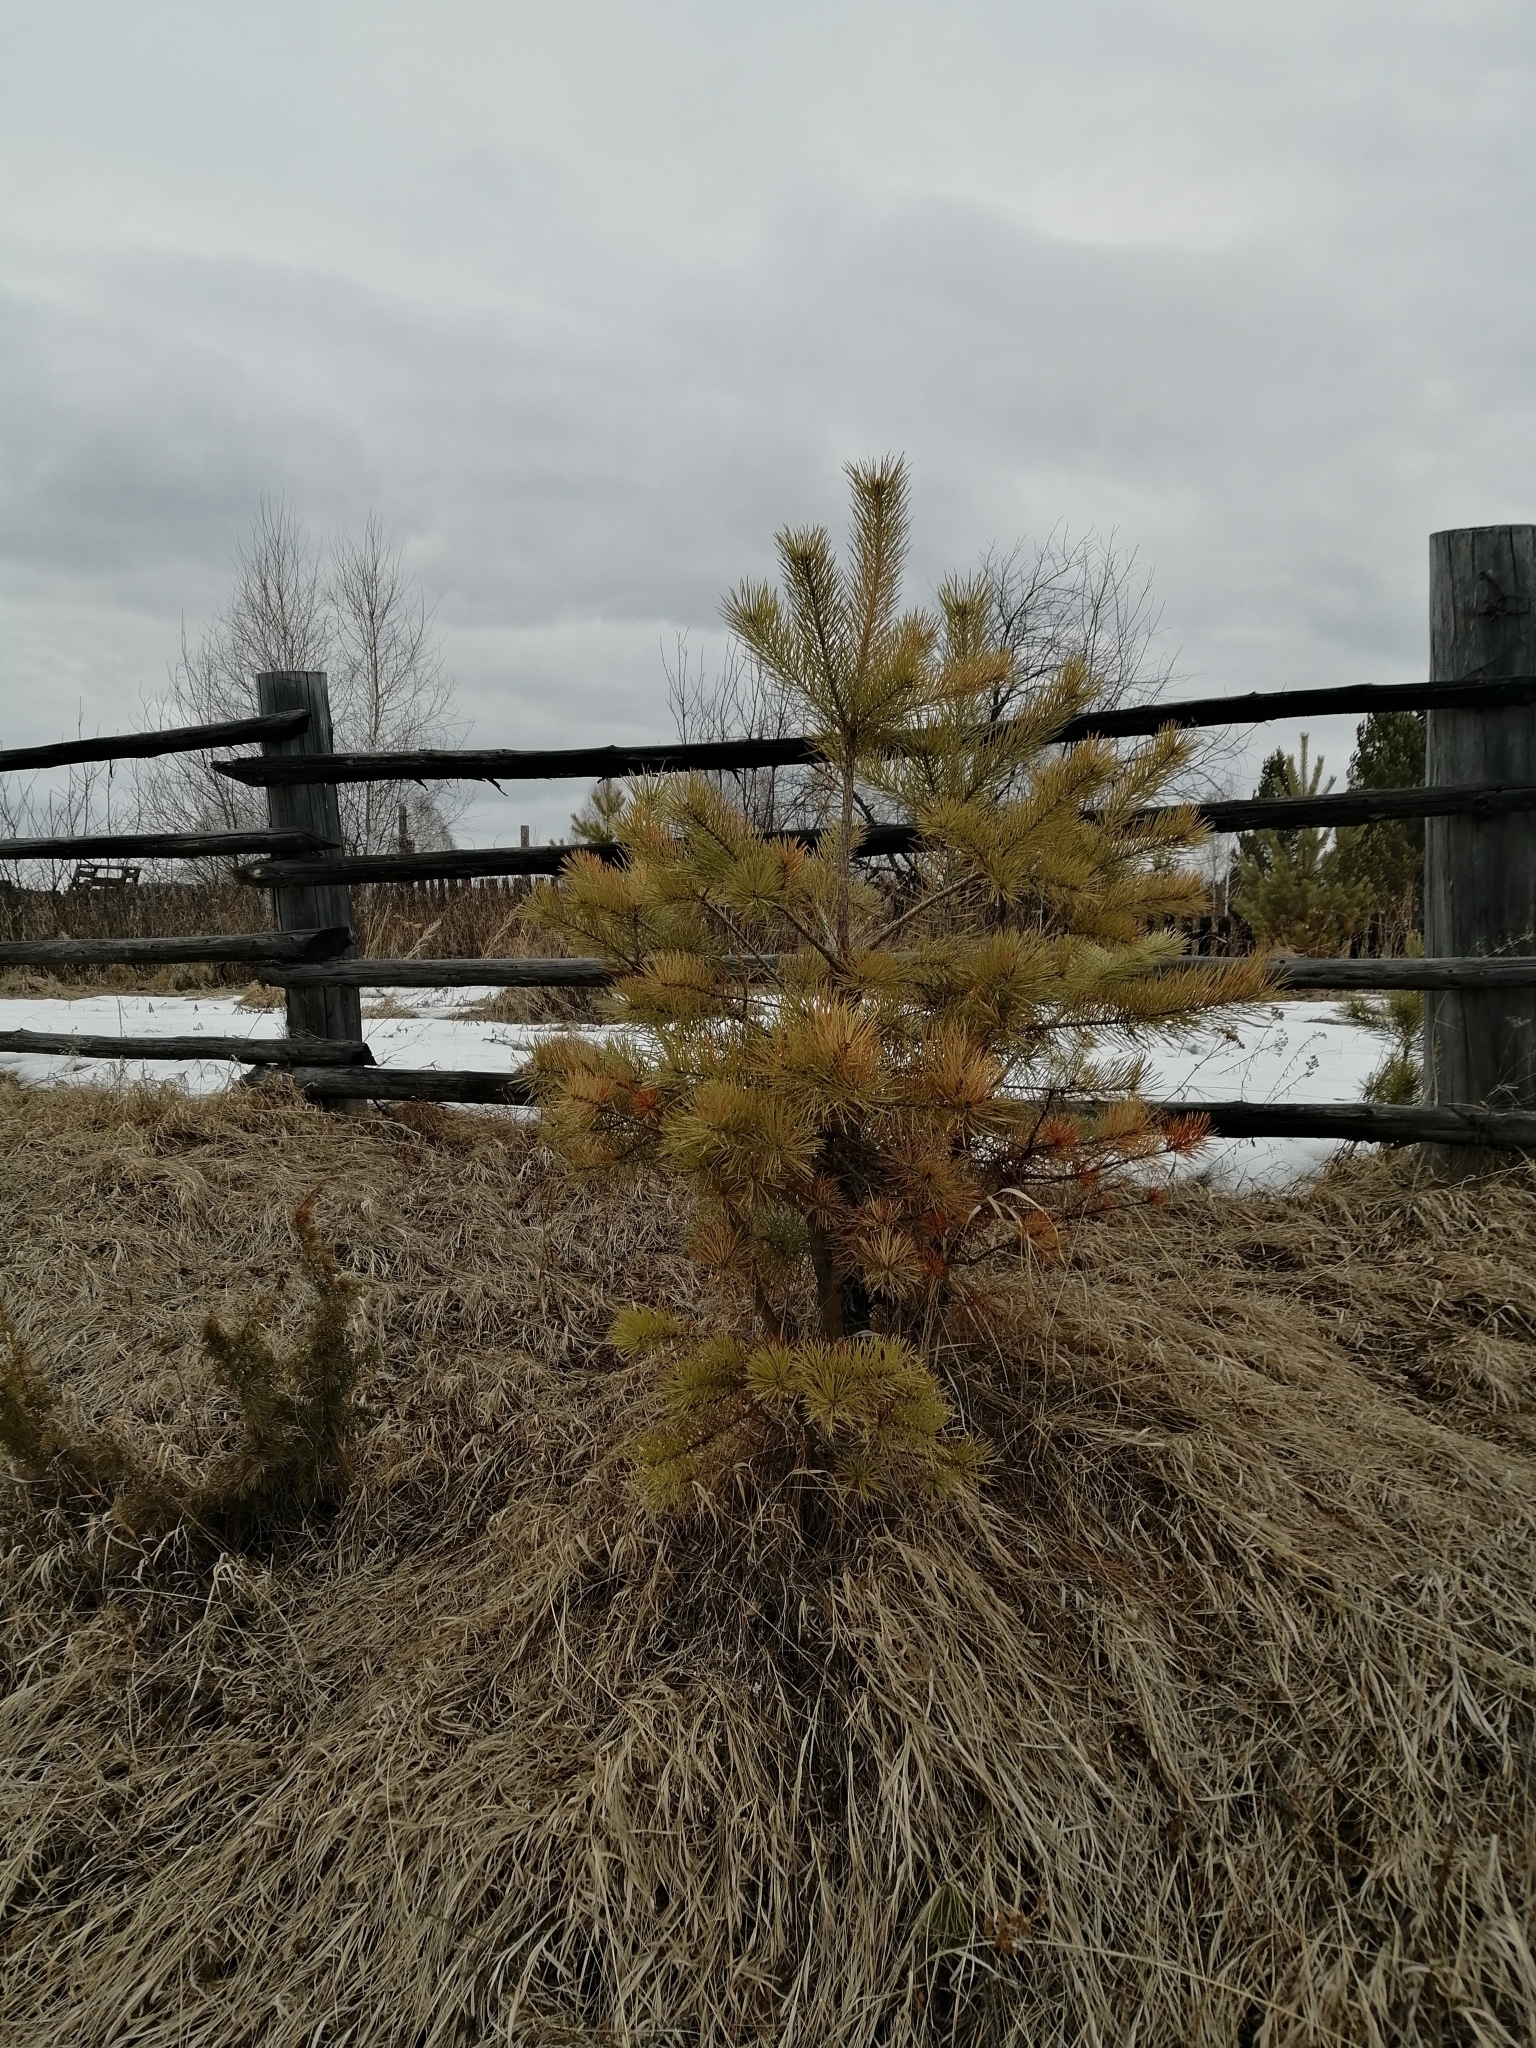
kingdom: Plantae
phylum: Tracheophyta
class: Pinopsida
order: Pinales
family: Pinaceae
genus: Pinus
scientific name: Pinus sylvestris
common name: Scots pine
